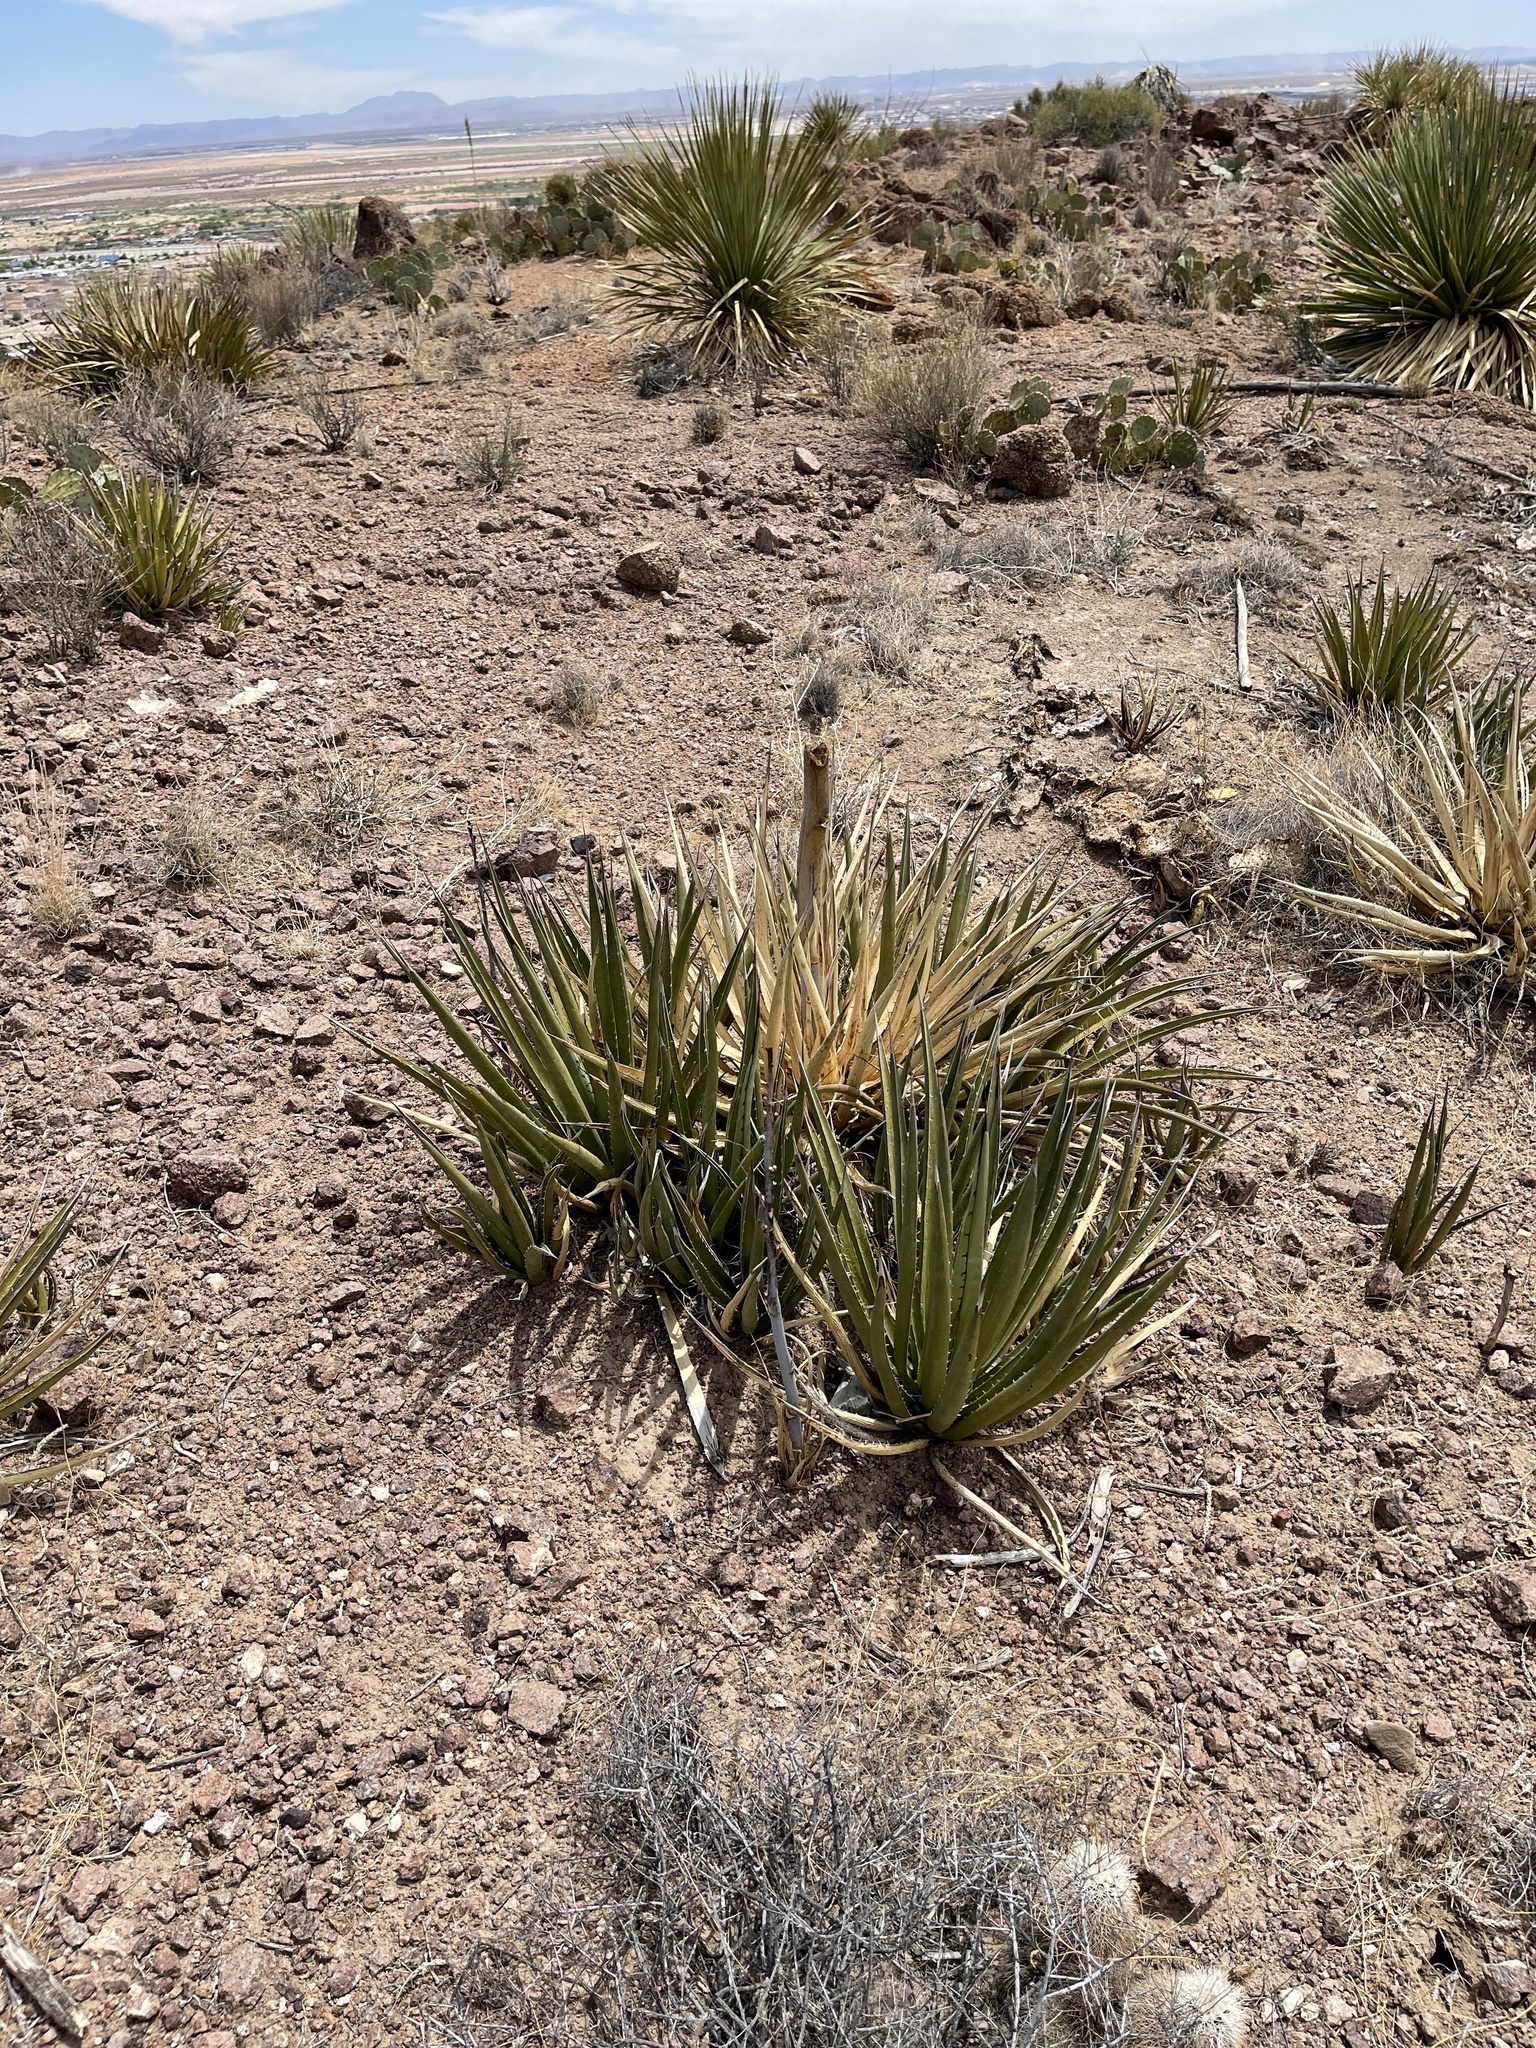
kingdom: Plantae
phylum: Tracheophyta
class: Liliopsida
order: Asparagales
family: Asparagaceae
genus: Agave
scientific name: Agave lechuguilla
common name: Lecheguilla agave
